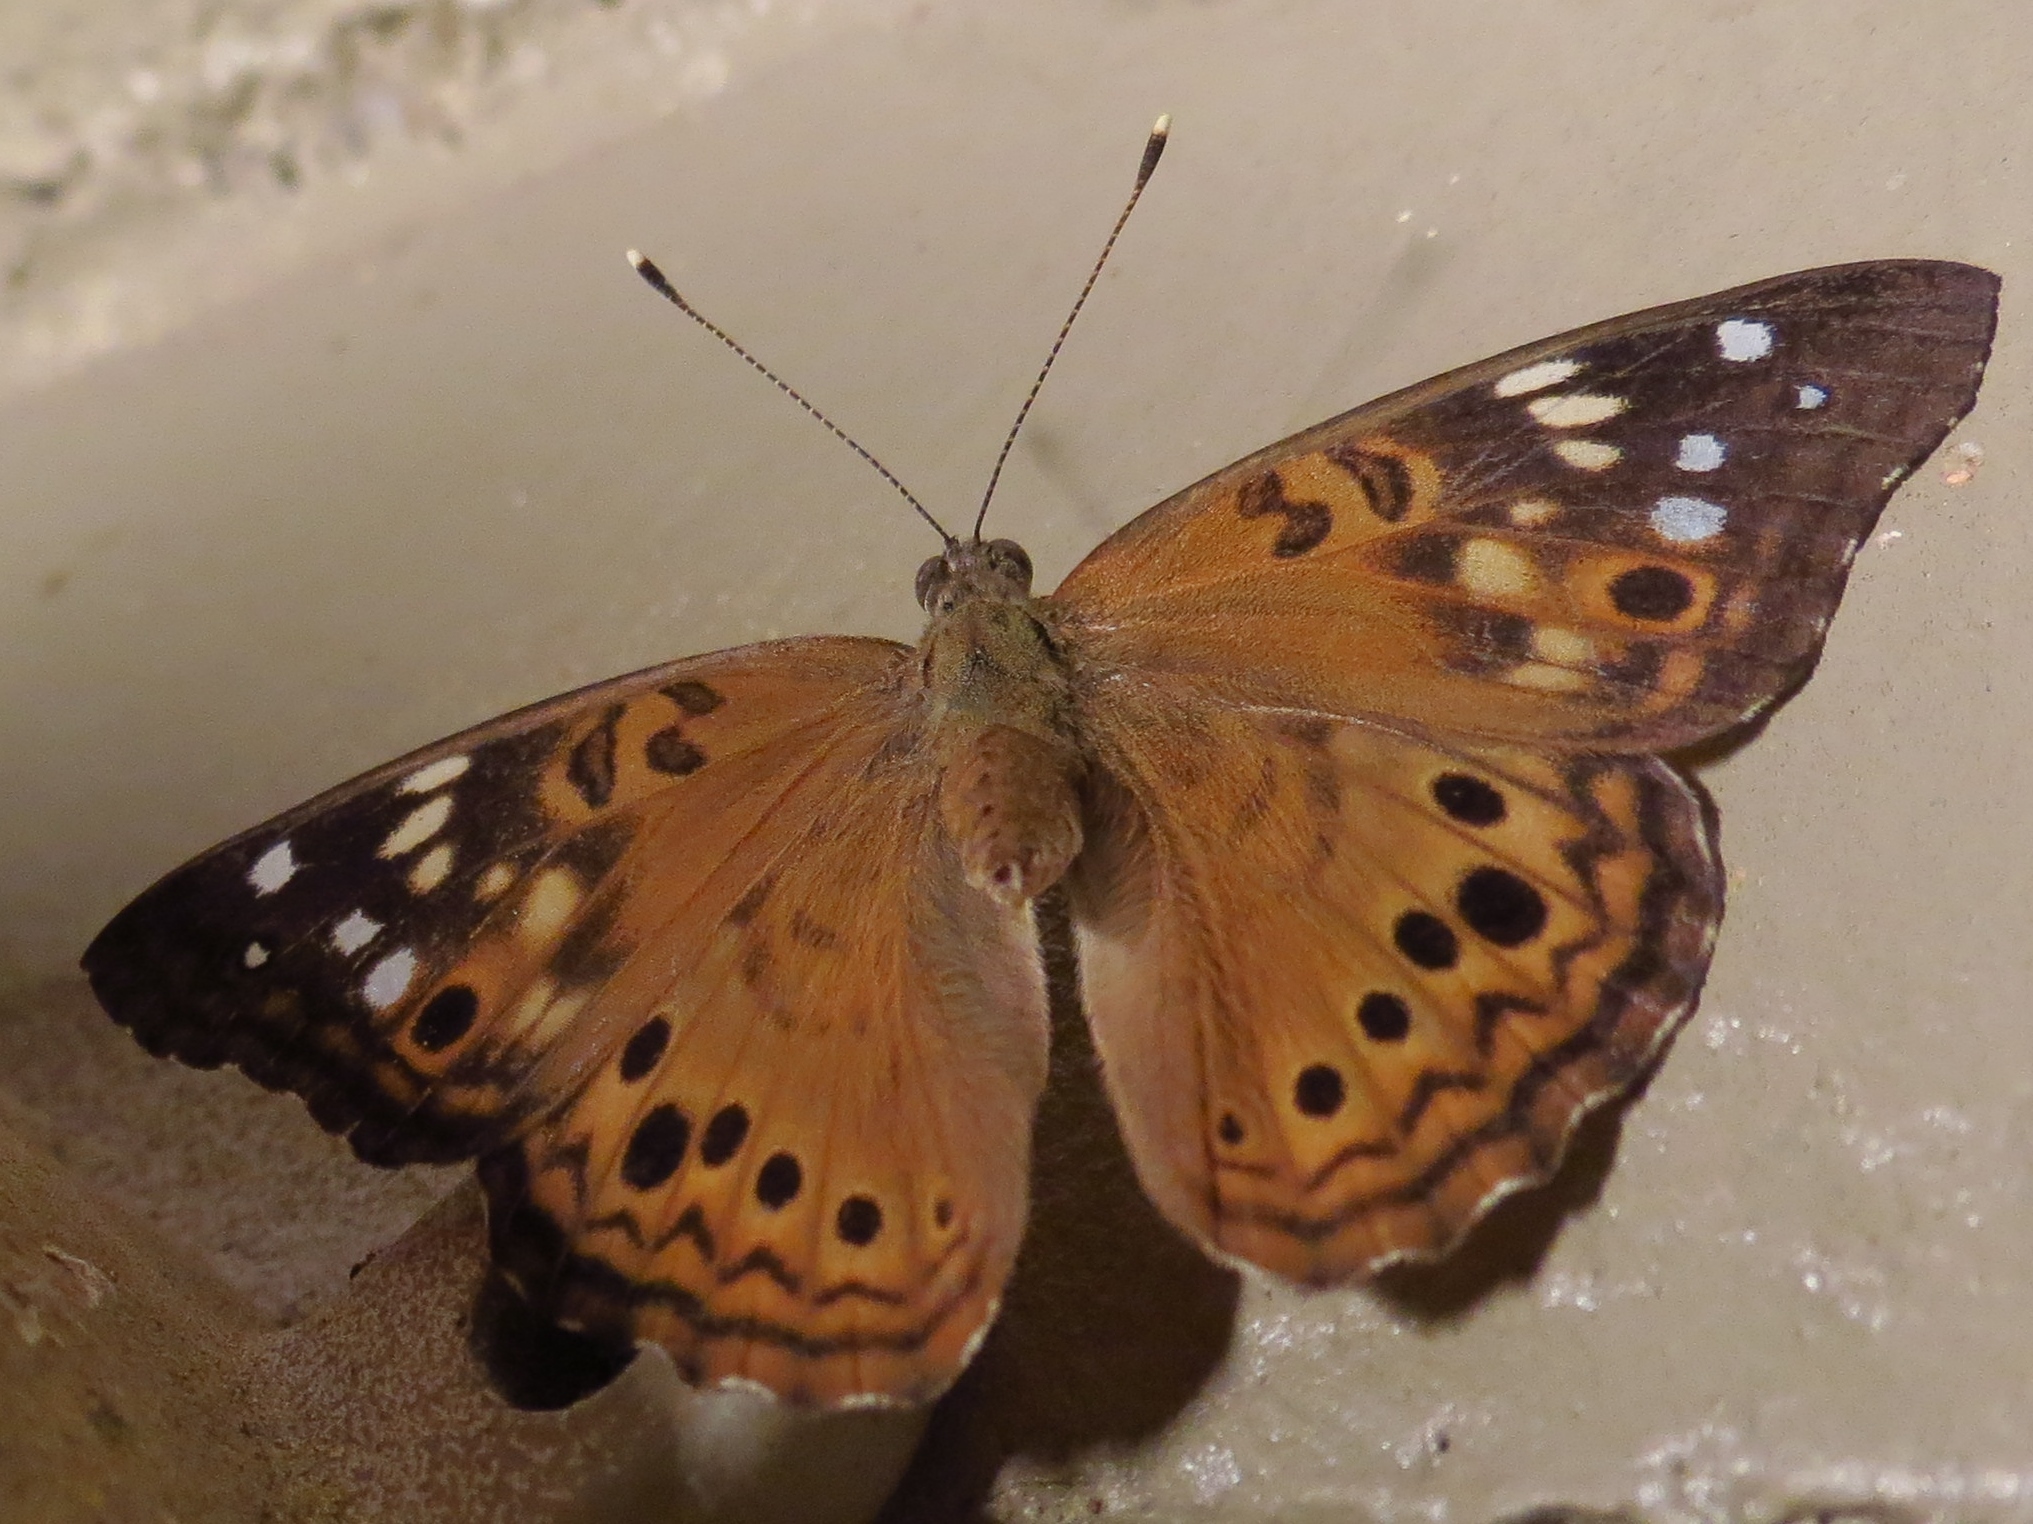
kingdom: Animalia
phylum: Arthropoda
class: Insecta
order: Lepidoptera
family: Nymphalidae
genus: Asterocampa
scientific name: Asterocampa celtis
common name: Hackberry emperor
